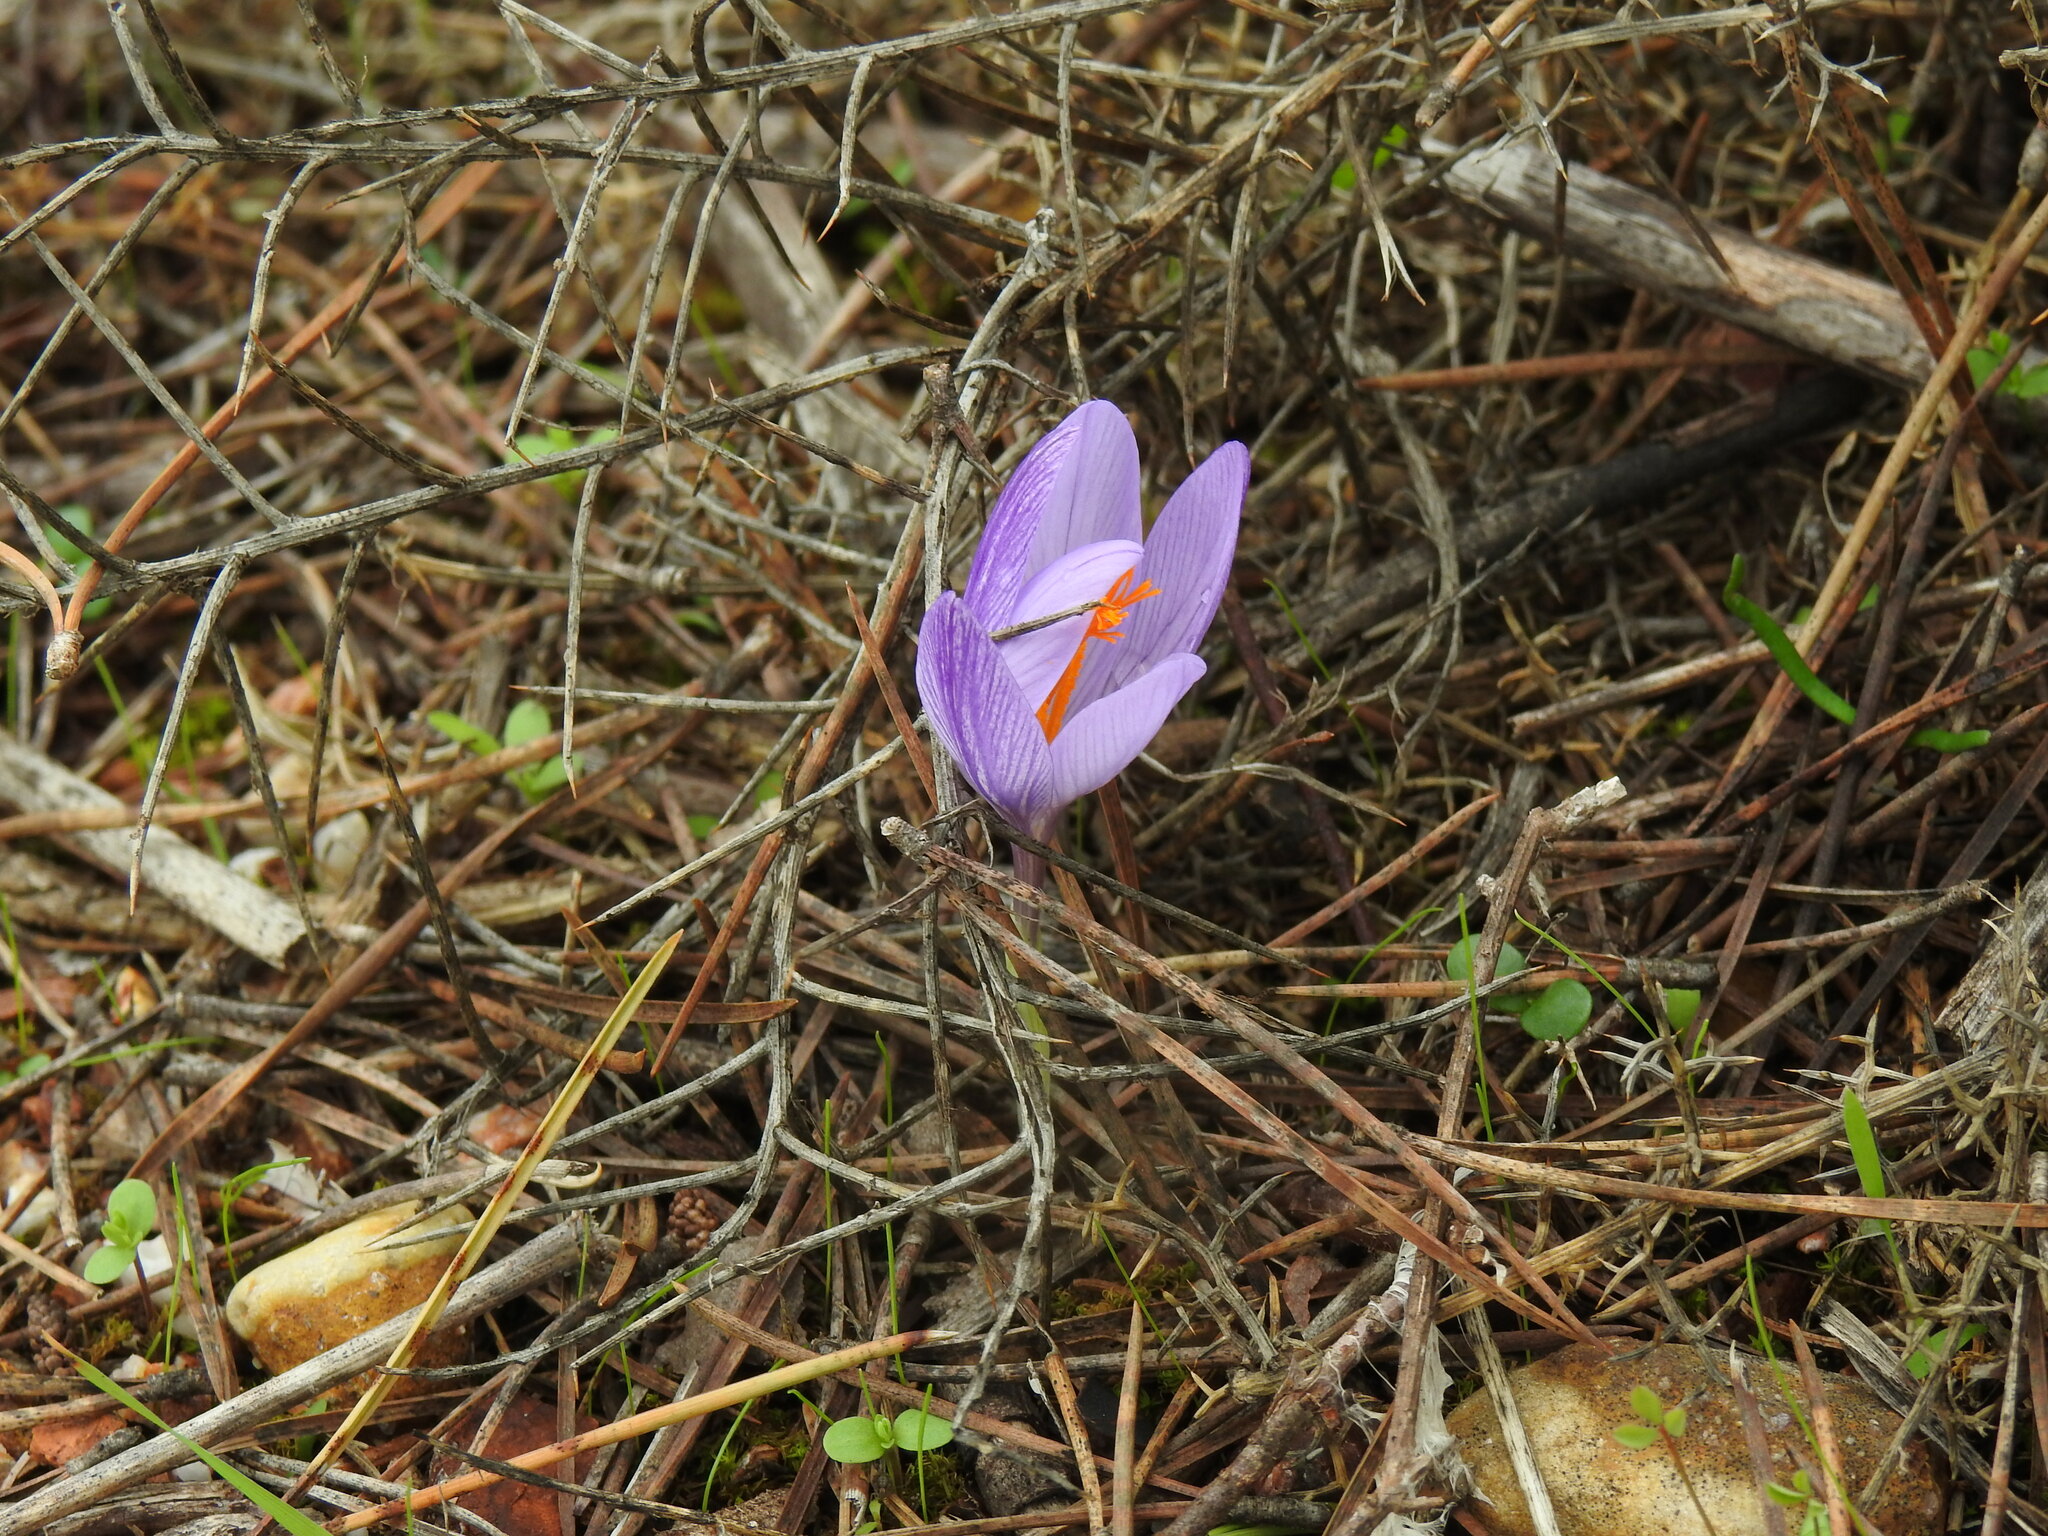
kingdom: Plantae
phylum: Tracheophyta
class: Liliopsida
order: Asparagales
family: Iridaceae
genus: Crocus
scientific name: Crocus serotinus
